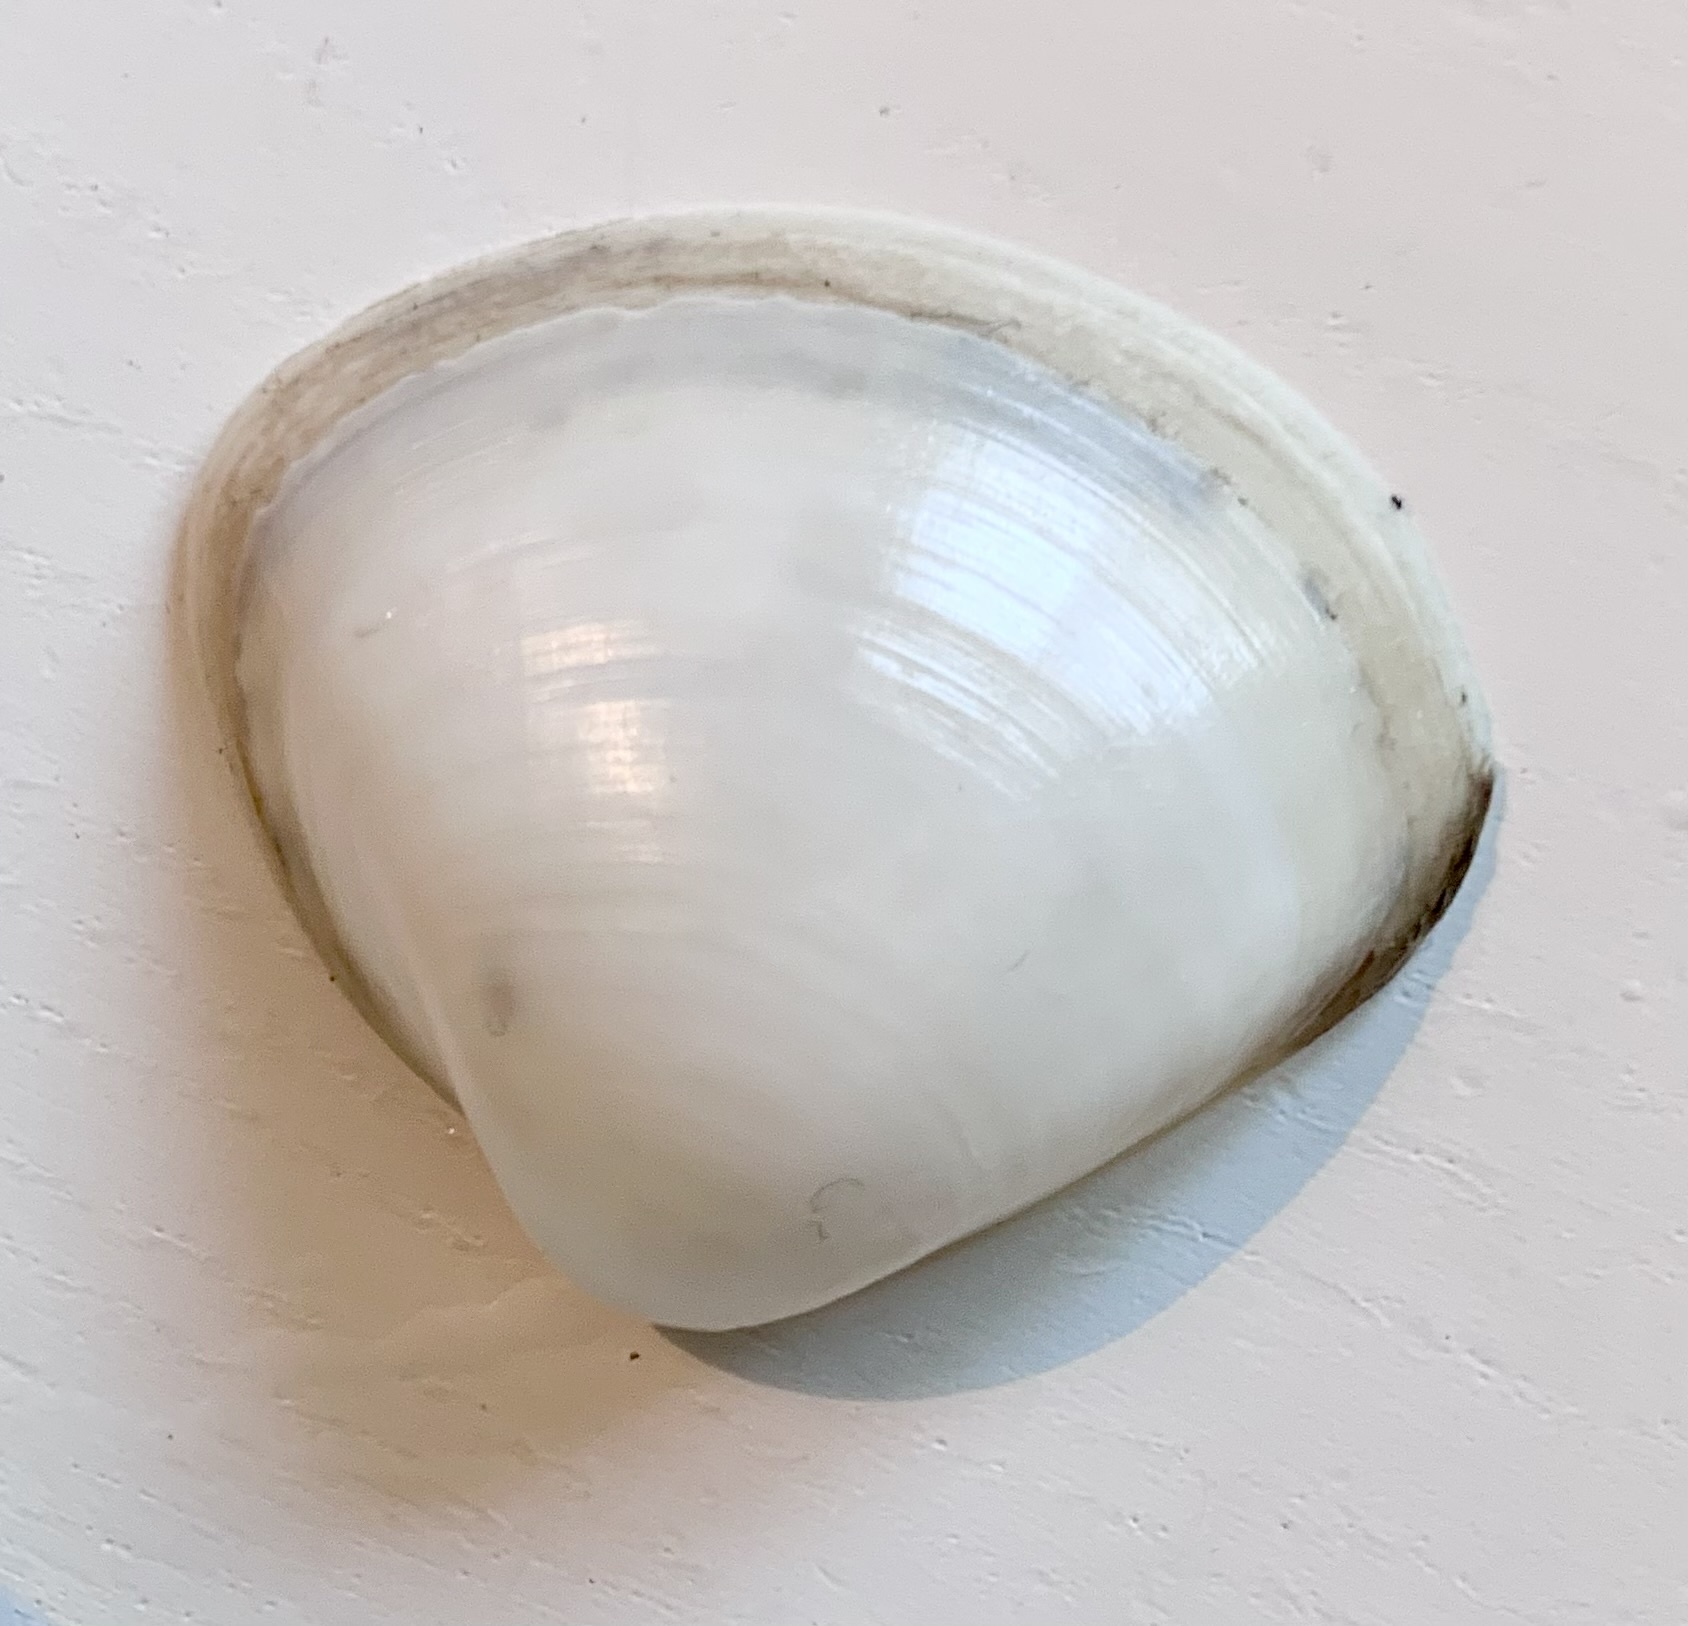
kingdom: Animalia
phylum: Mollusca
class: Bivalvia
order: Venerida
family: Mactridae
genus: Mactra
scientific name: Mactra stultorum
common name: Rayed trough shell
